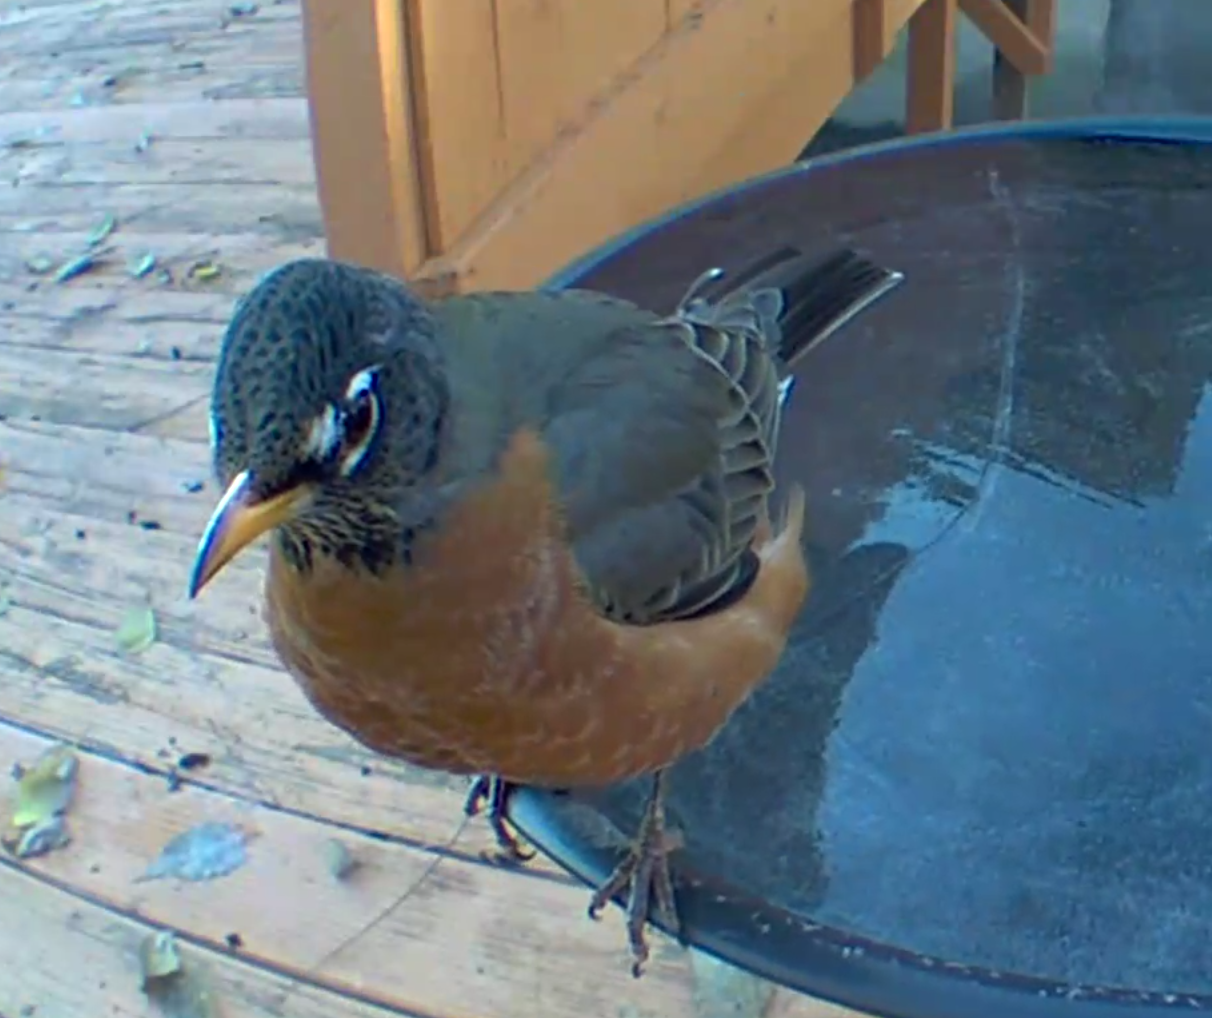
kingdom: Animalia
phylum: Chordata
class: Aves
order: Passeriformes
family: Turdidae
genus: Turdus
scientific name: Turdus migratorius
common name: American robin
